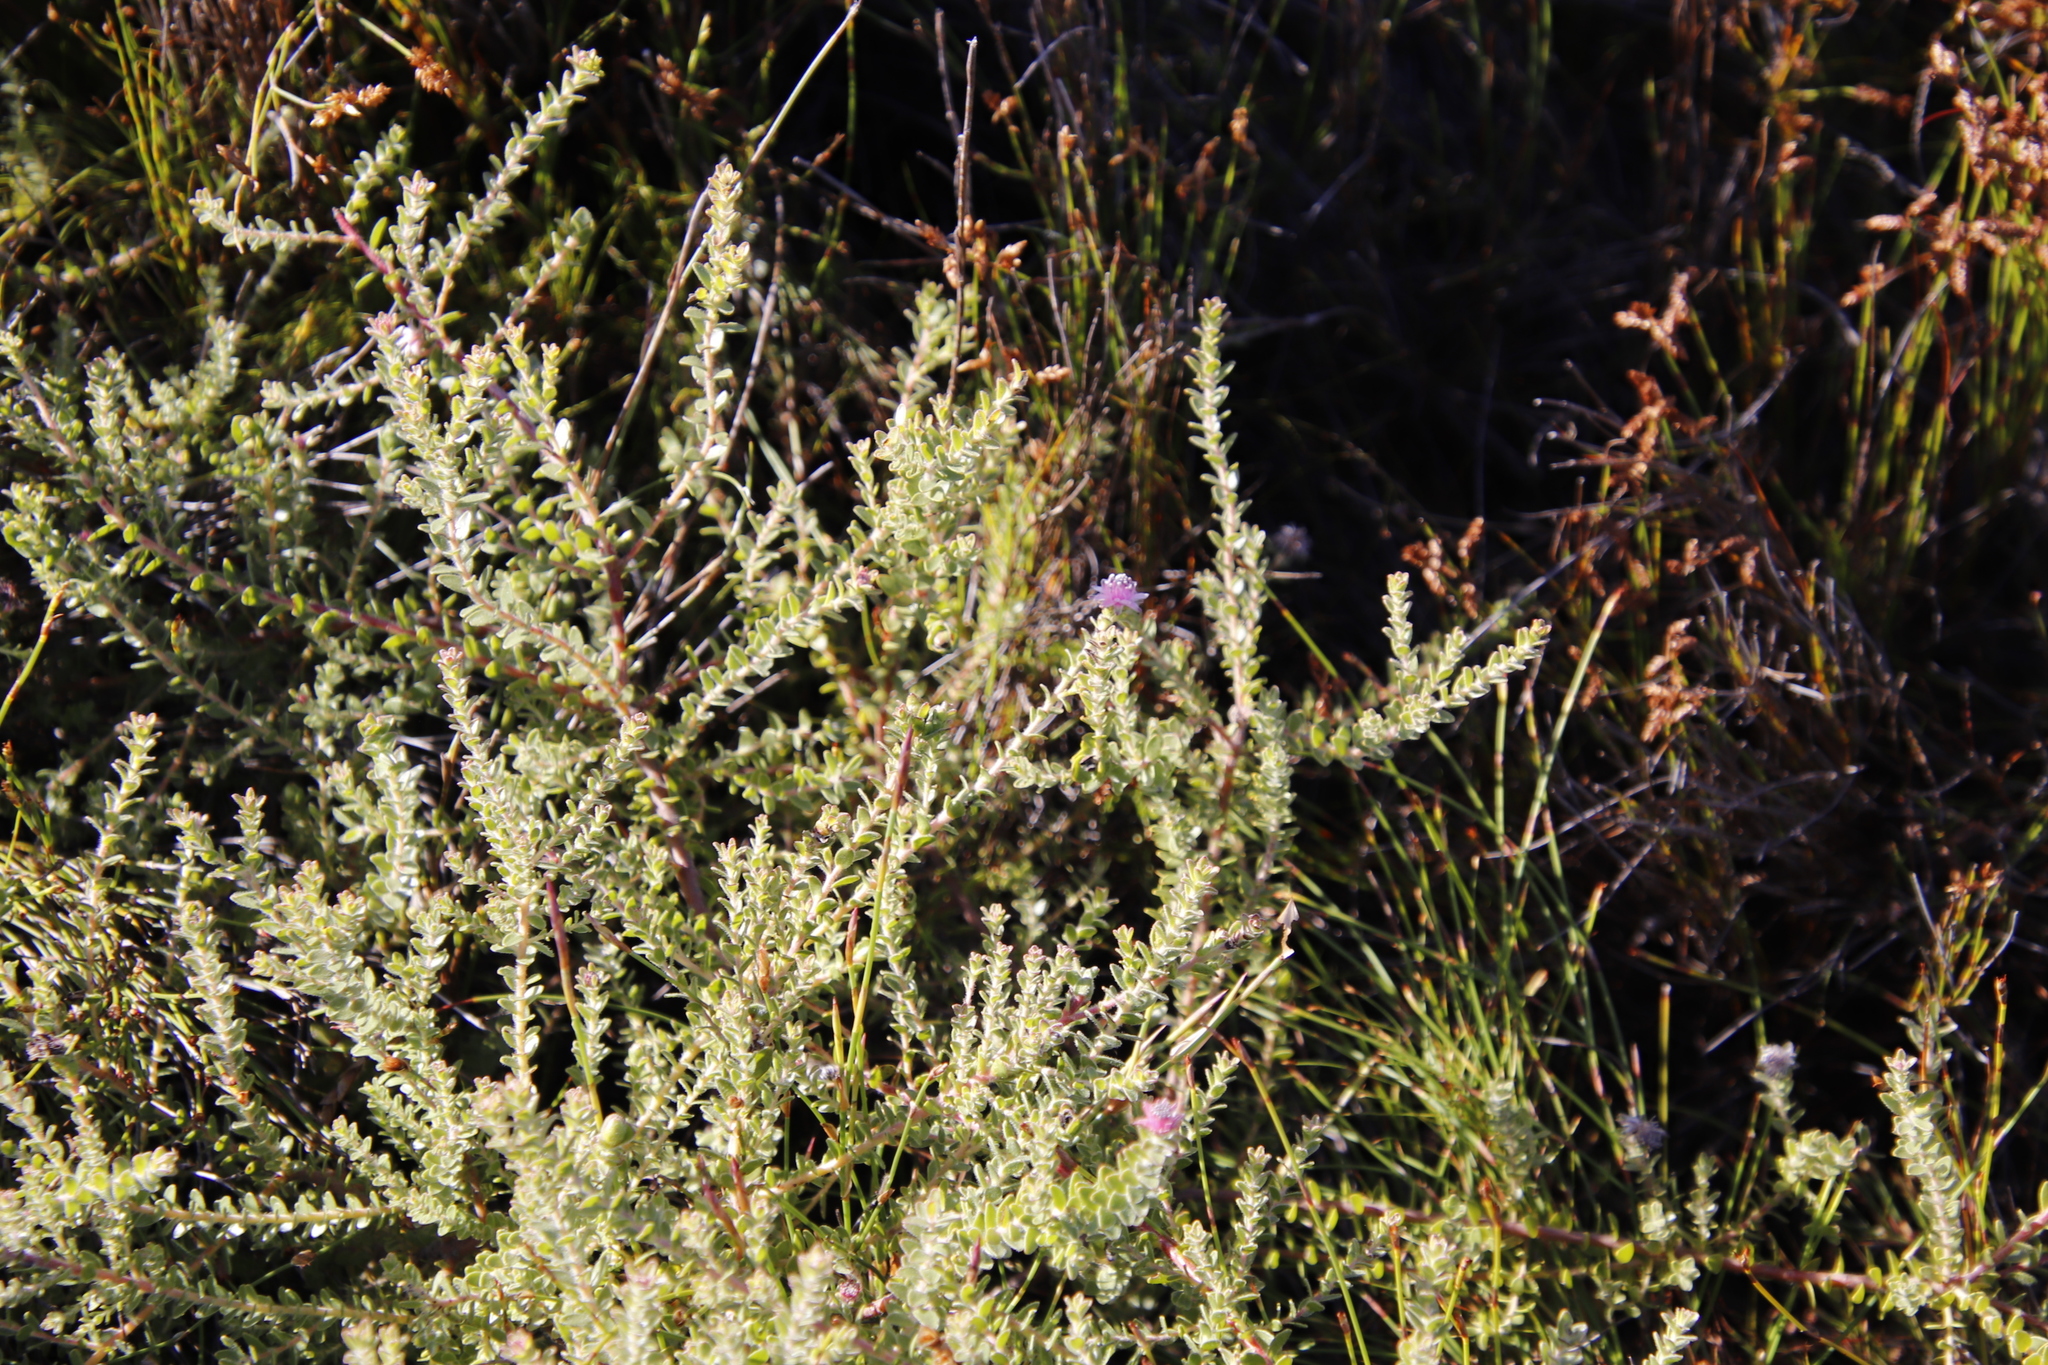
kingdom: Plantae
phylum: Tracheophyta
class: Magnoliopsida
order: Proteales
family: Proteaceae
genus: Diastella
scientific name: Diastella divaricata
